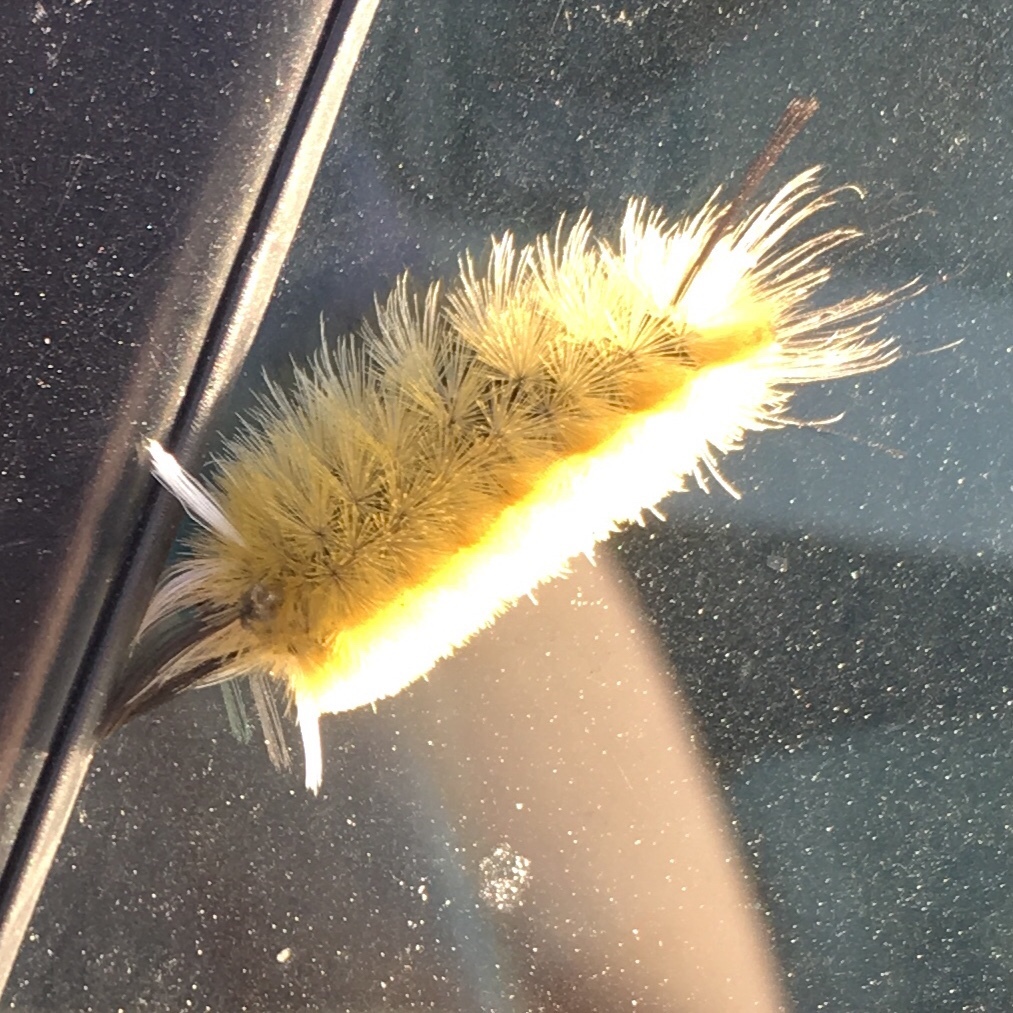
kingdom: Animalia
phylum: Arthropoda
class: Insecta
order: Lepidoptera
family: Erebidae
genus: Halysidota
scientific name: Halysidota tessellaris
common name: Banded tussock moth
